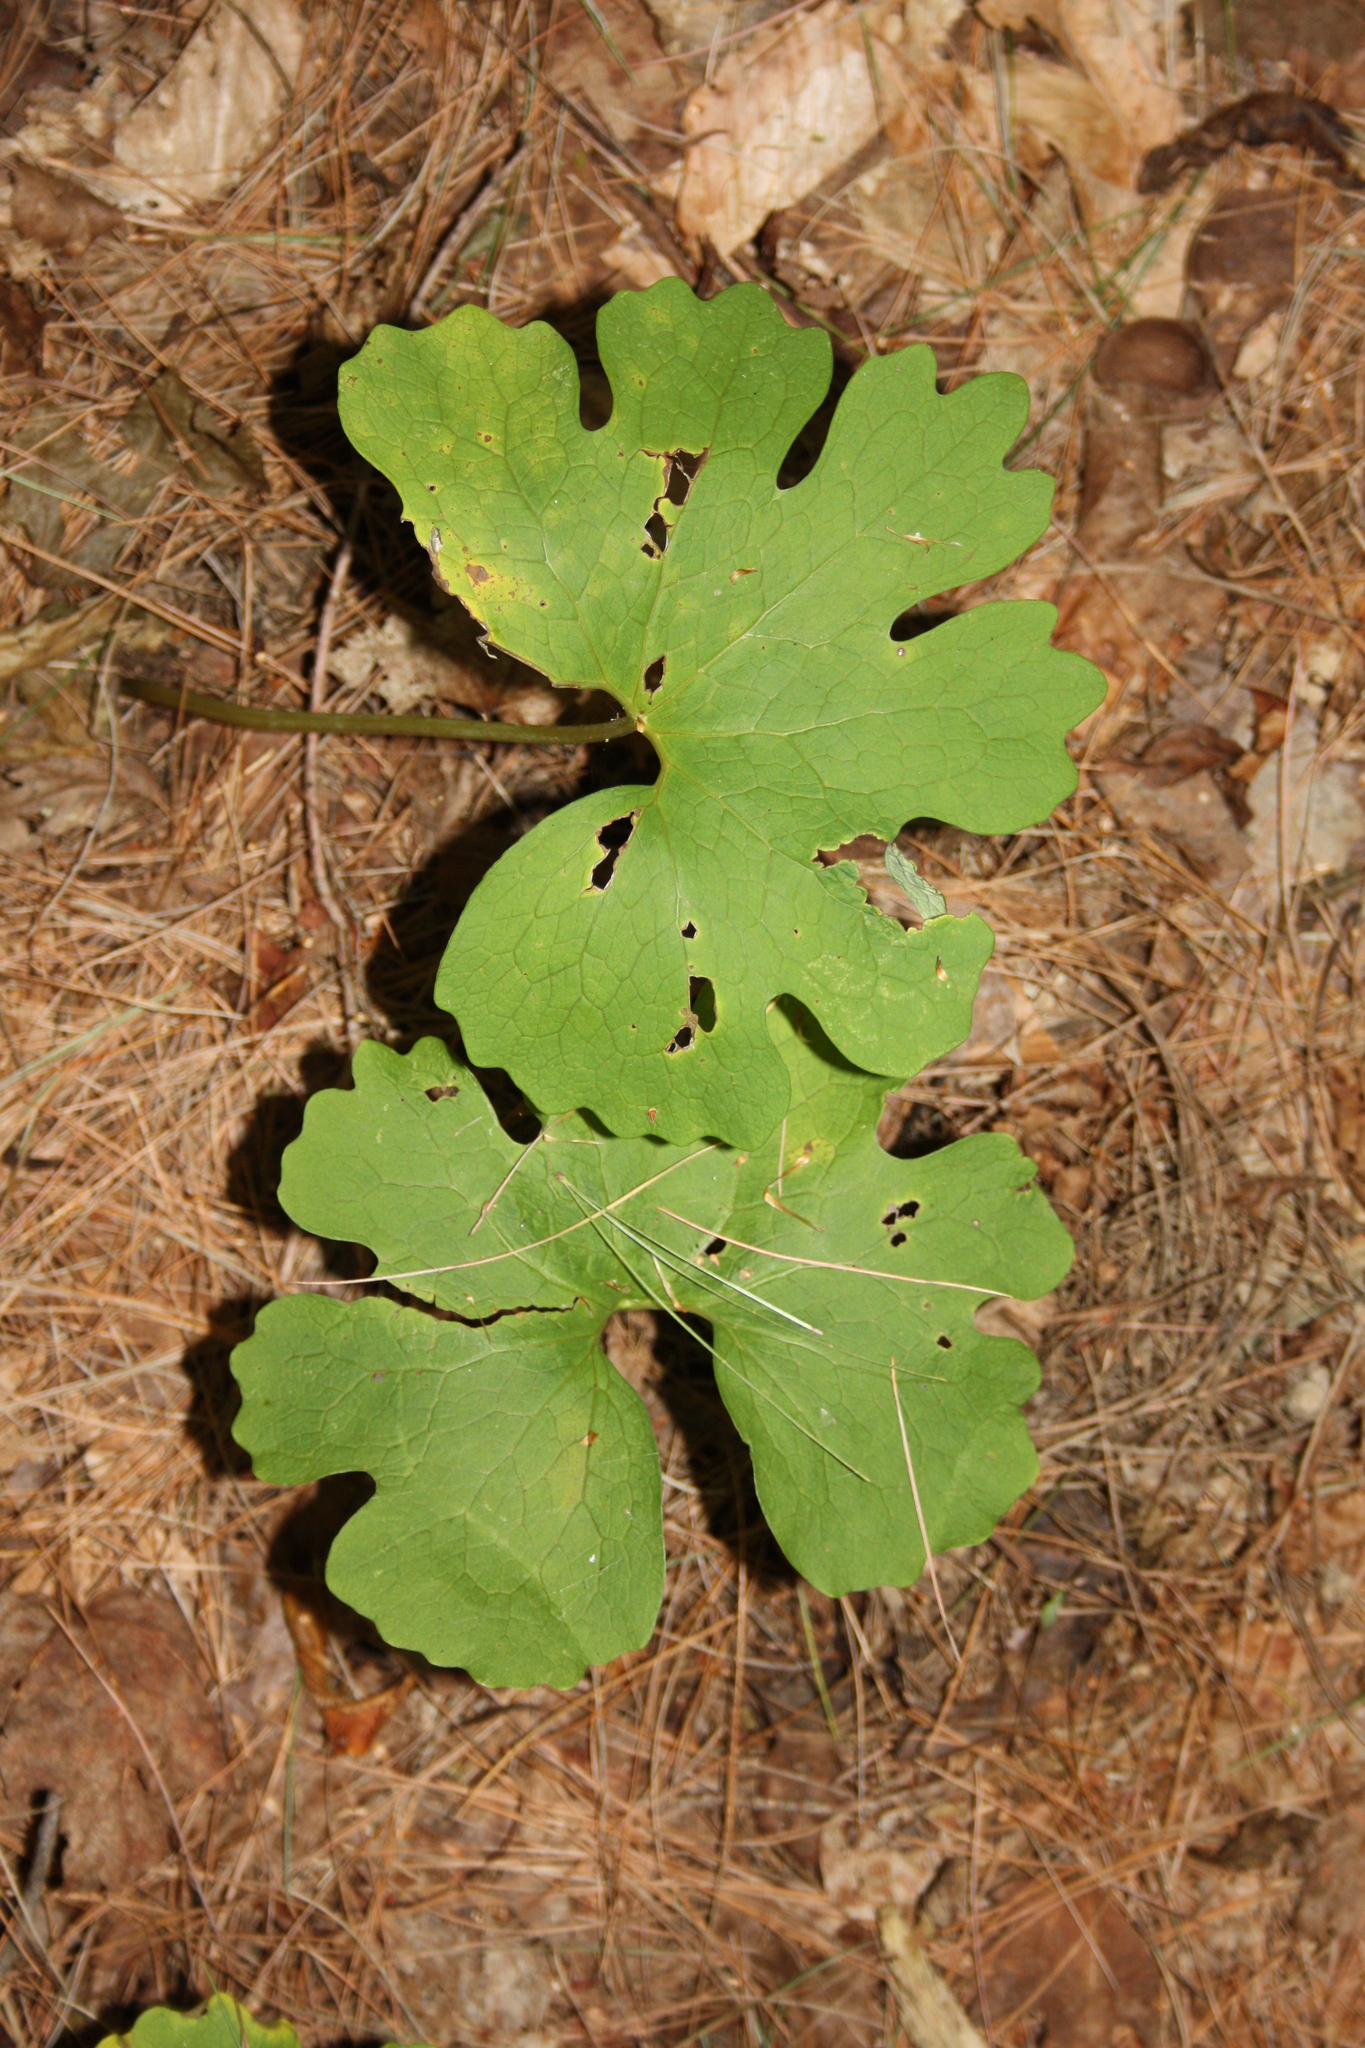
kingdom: Plantae
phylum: Tracheophyta
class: Magnoliopsida
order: Ranunculales
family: Papaveraceae
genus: Sanguinaria
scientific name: Sanguinaria canadensis
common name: Bloodroot
